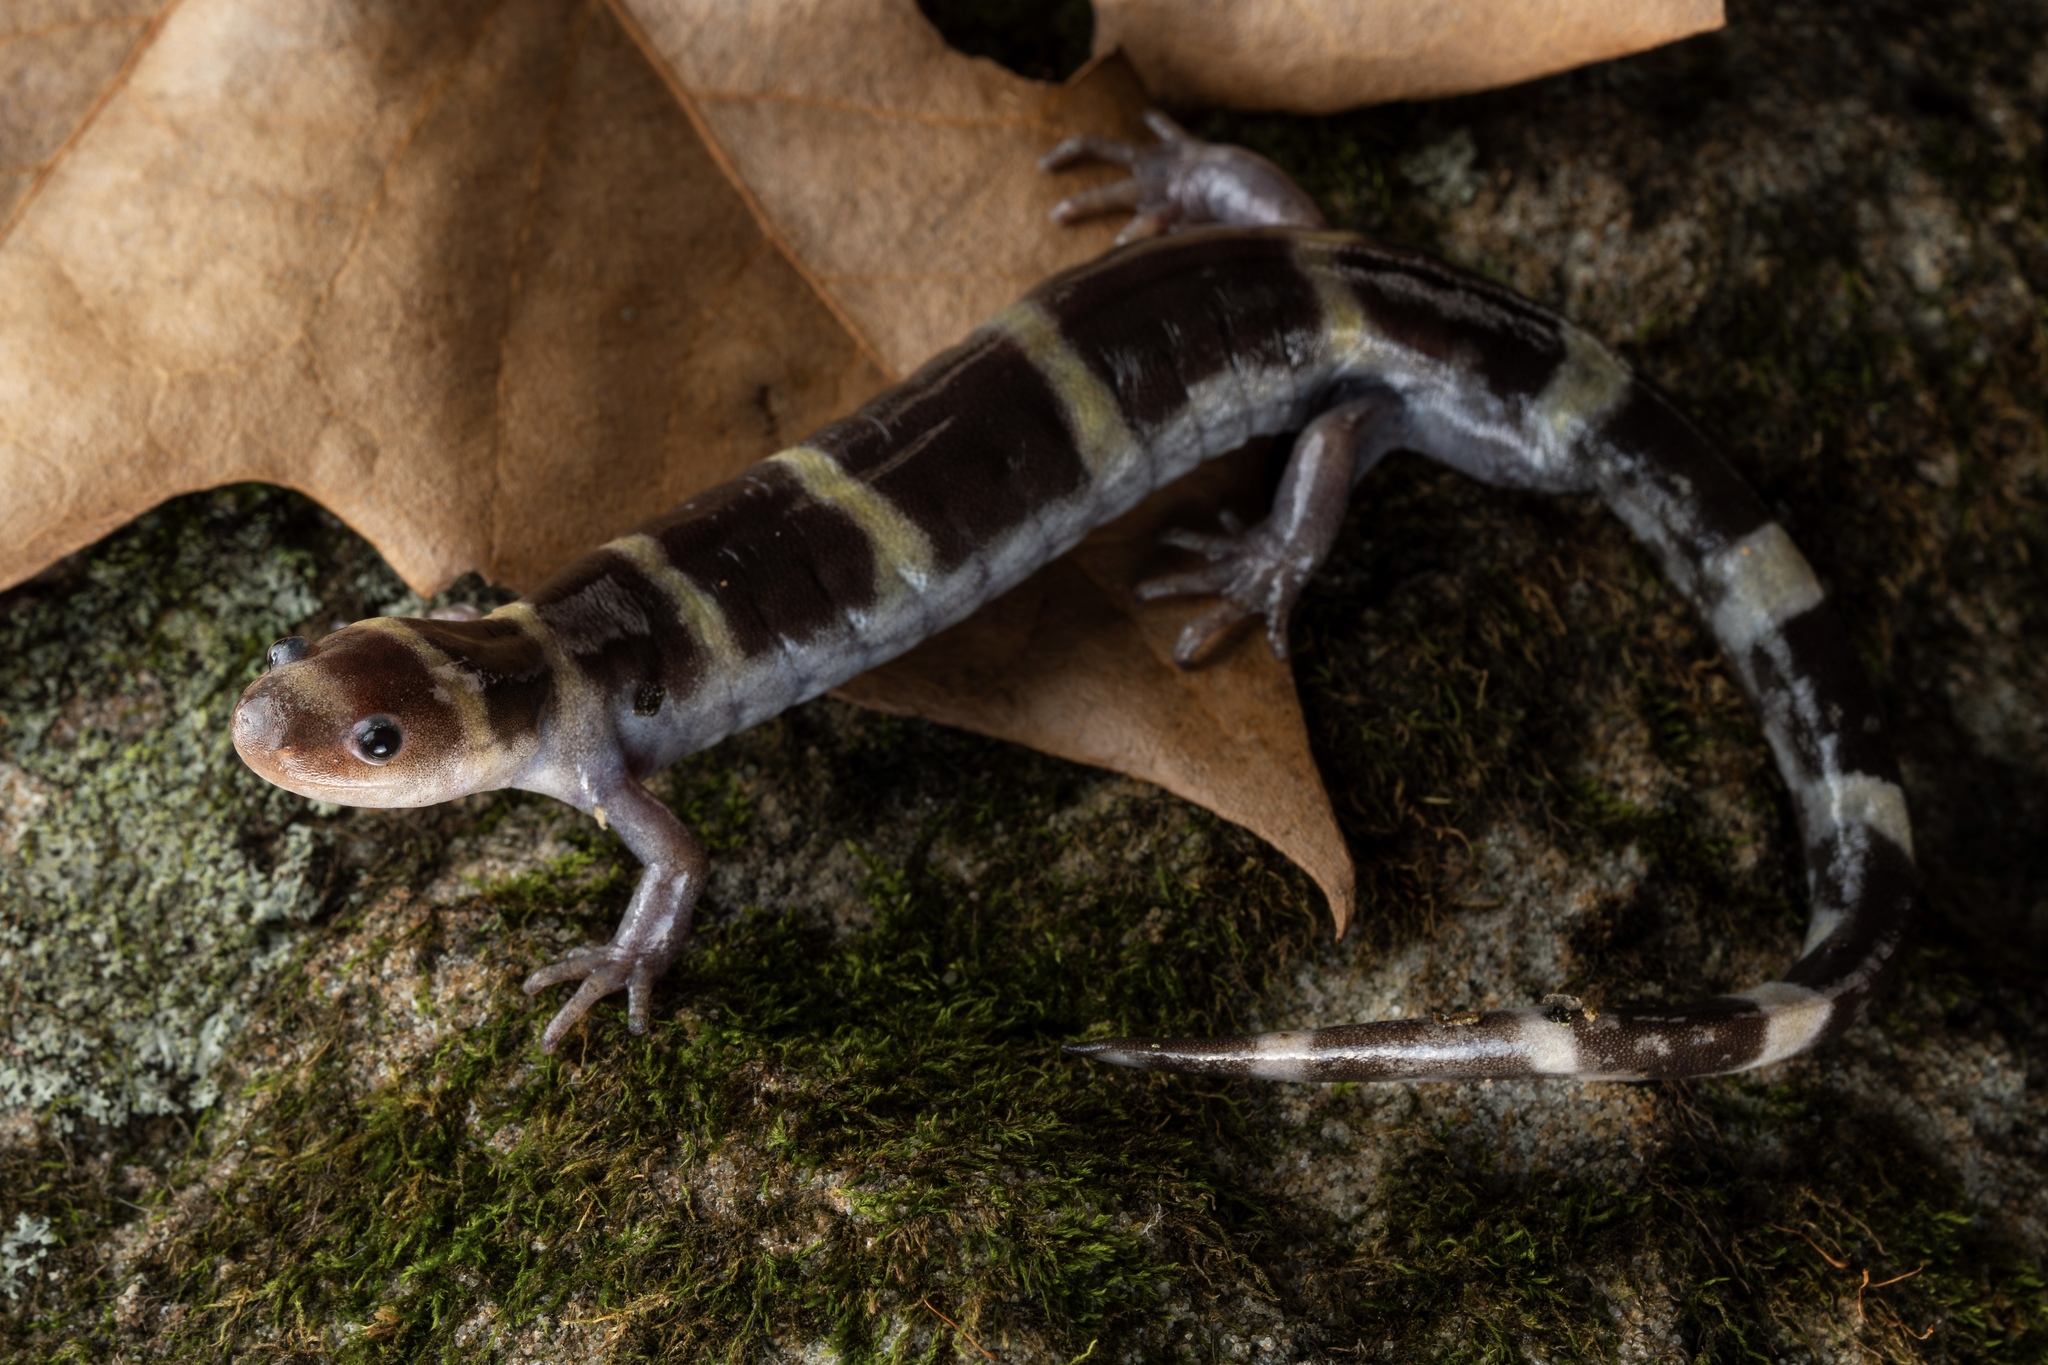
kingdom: Animalia
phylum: Chordata
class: Amphibia
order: Caudata
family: Ambystomatidae
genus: Ambystoma
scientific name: Ambystoma annulatum
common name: Ringed salamander
